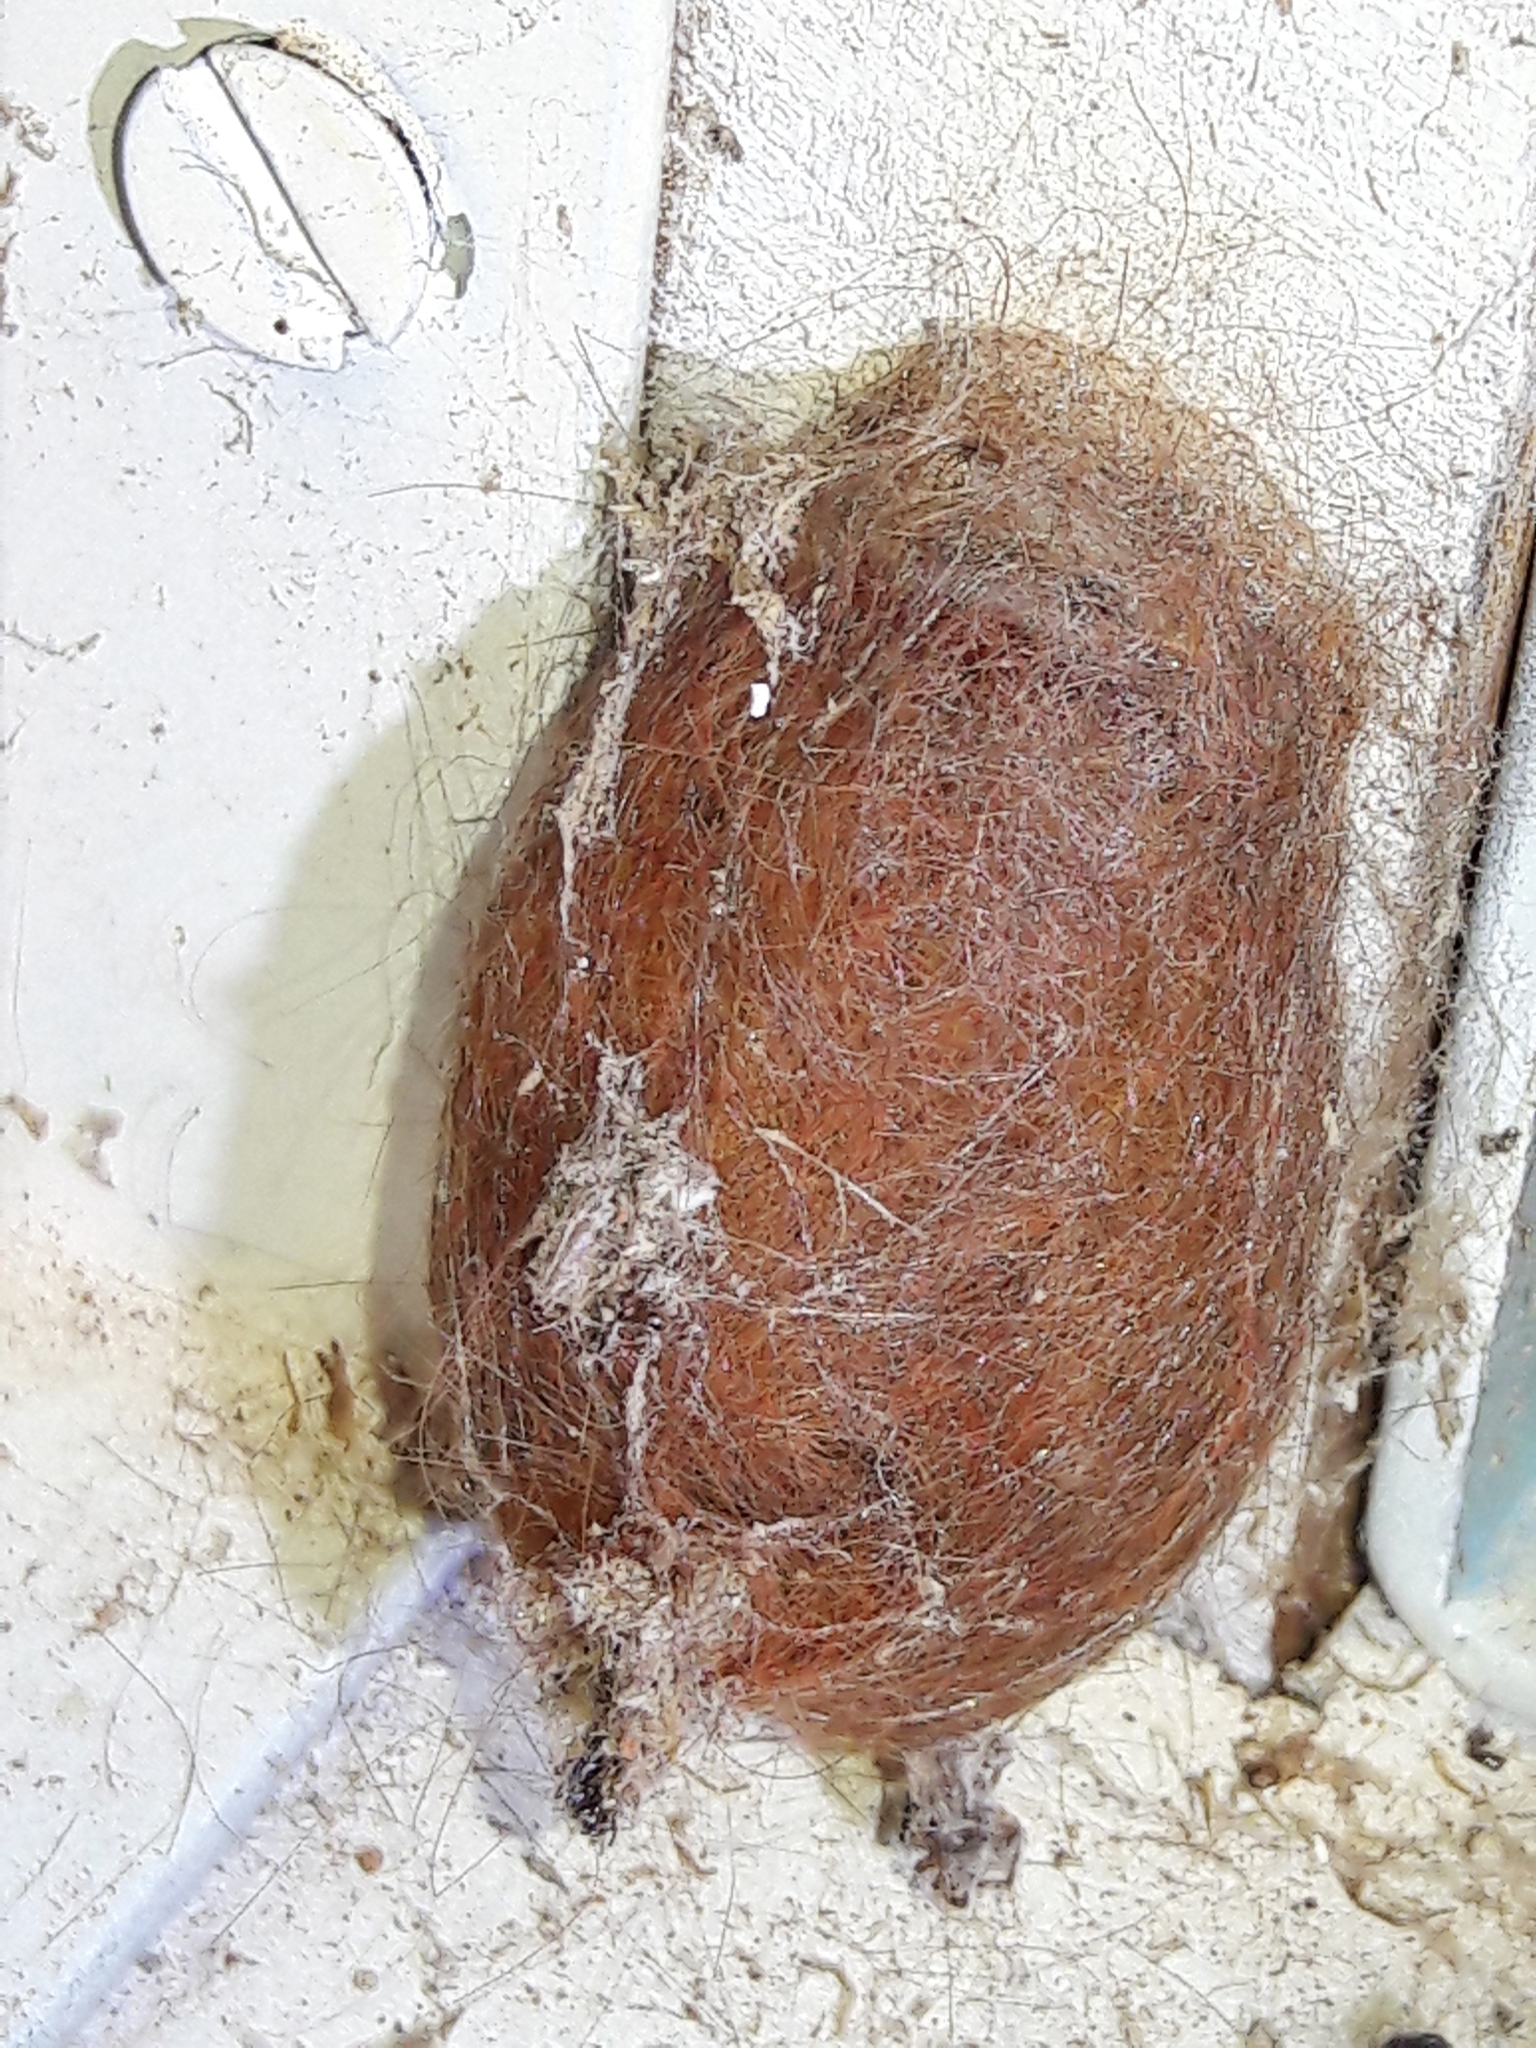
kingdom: Animalia
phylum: Arthropoda
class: Insecta
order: Lepidoptera
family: Megalopygidae
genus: Megalopyge
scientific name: Megalopyge albicollis
